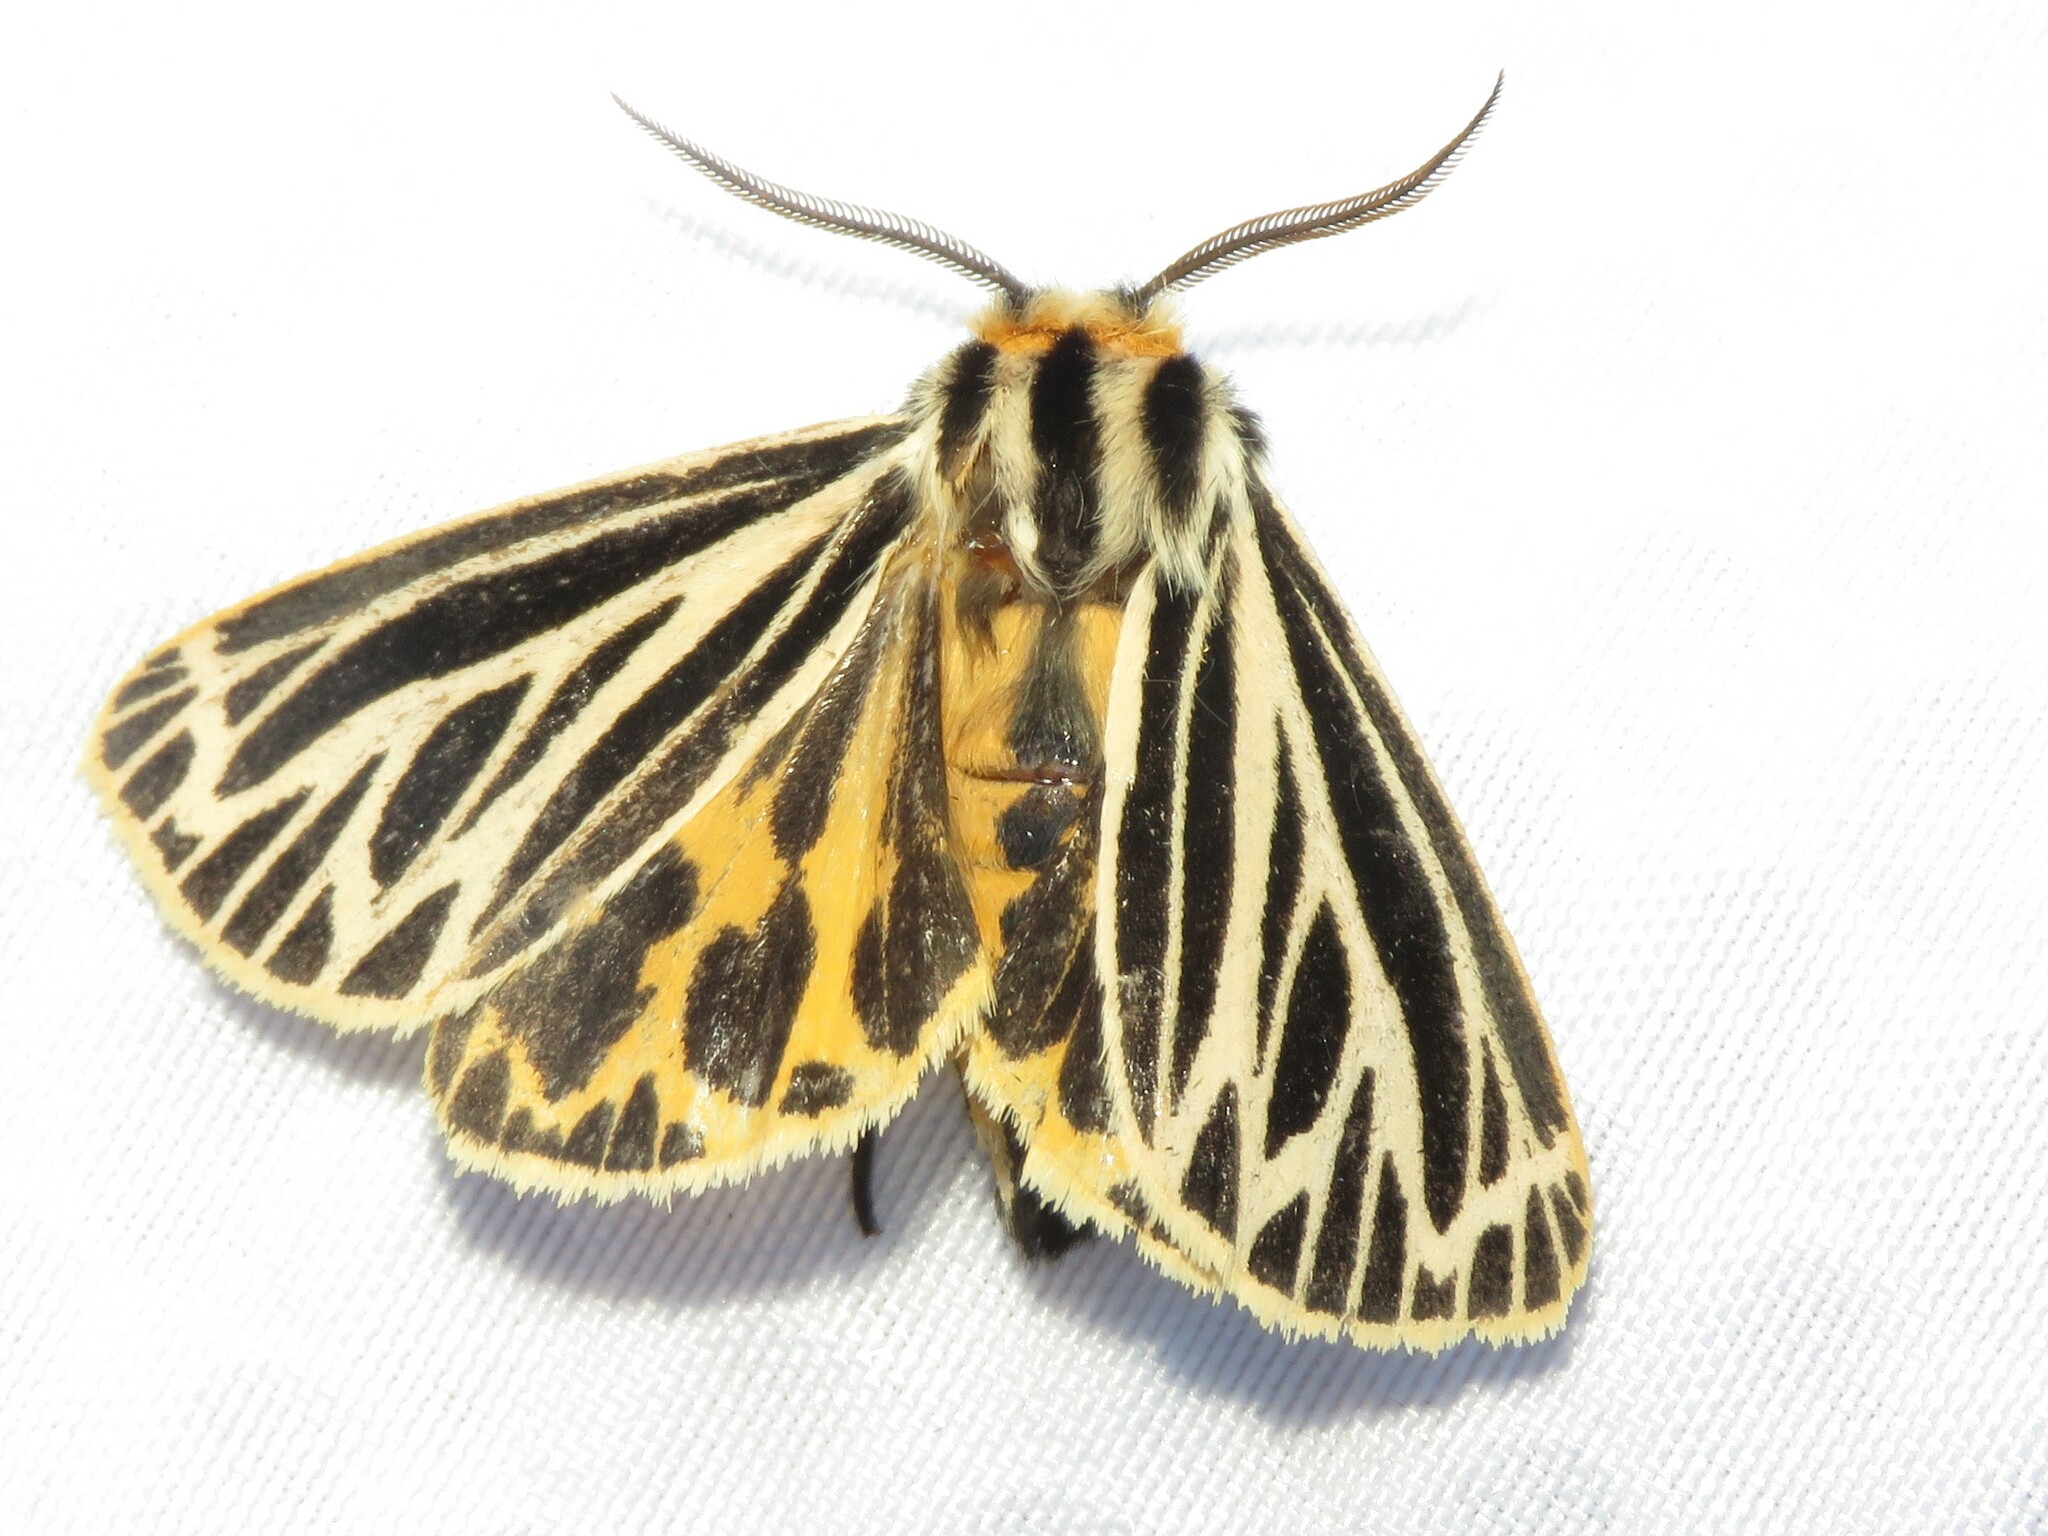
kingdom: Animalia
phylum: Arthropoda
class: Insecta
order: Lepidoptera
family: Erebidae
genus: Grammia
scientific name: Grammia virguncula
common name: Little tiger moth
